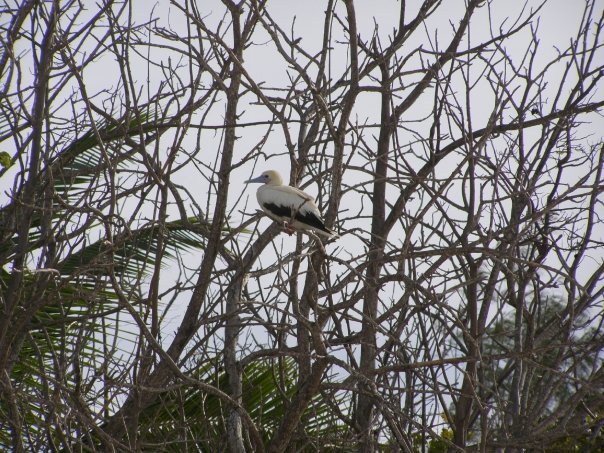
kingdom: Animalia
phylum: Chordata
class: Aves
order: Suliformes
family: Sulidae
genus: Sula
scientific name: Sula sula
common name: Red-footed booby
